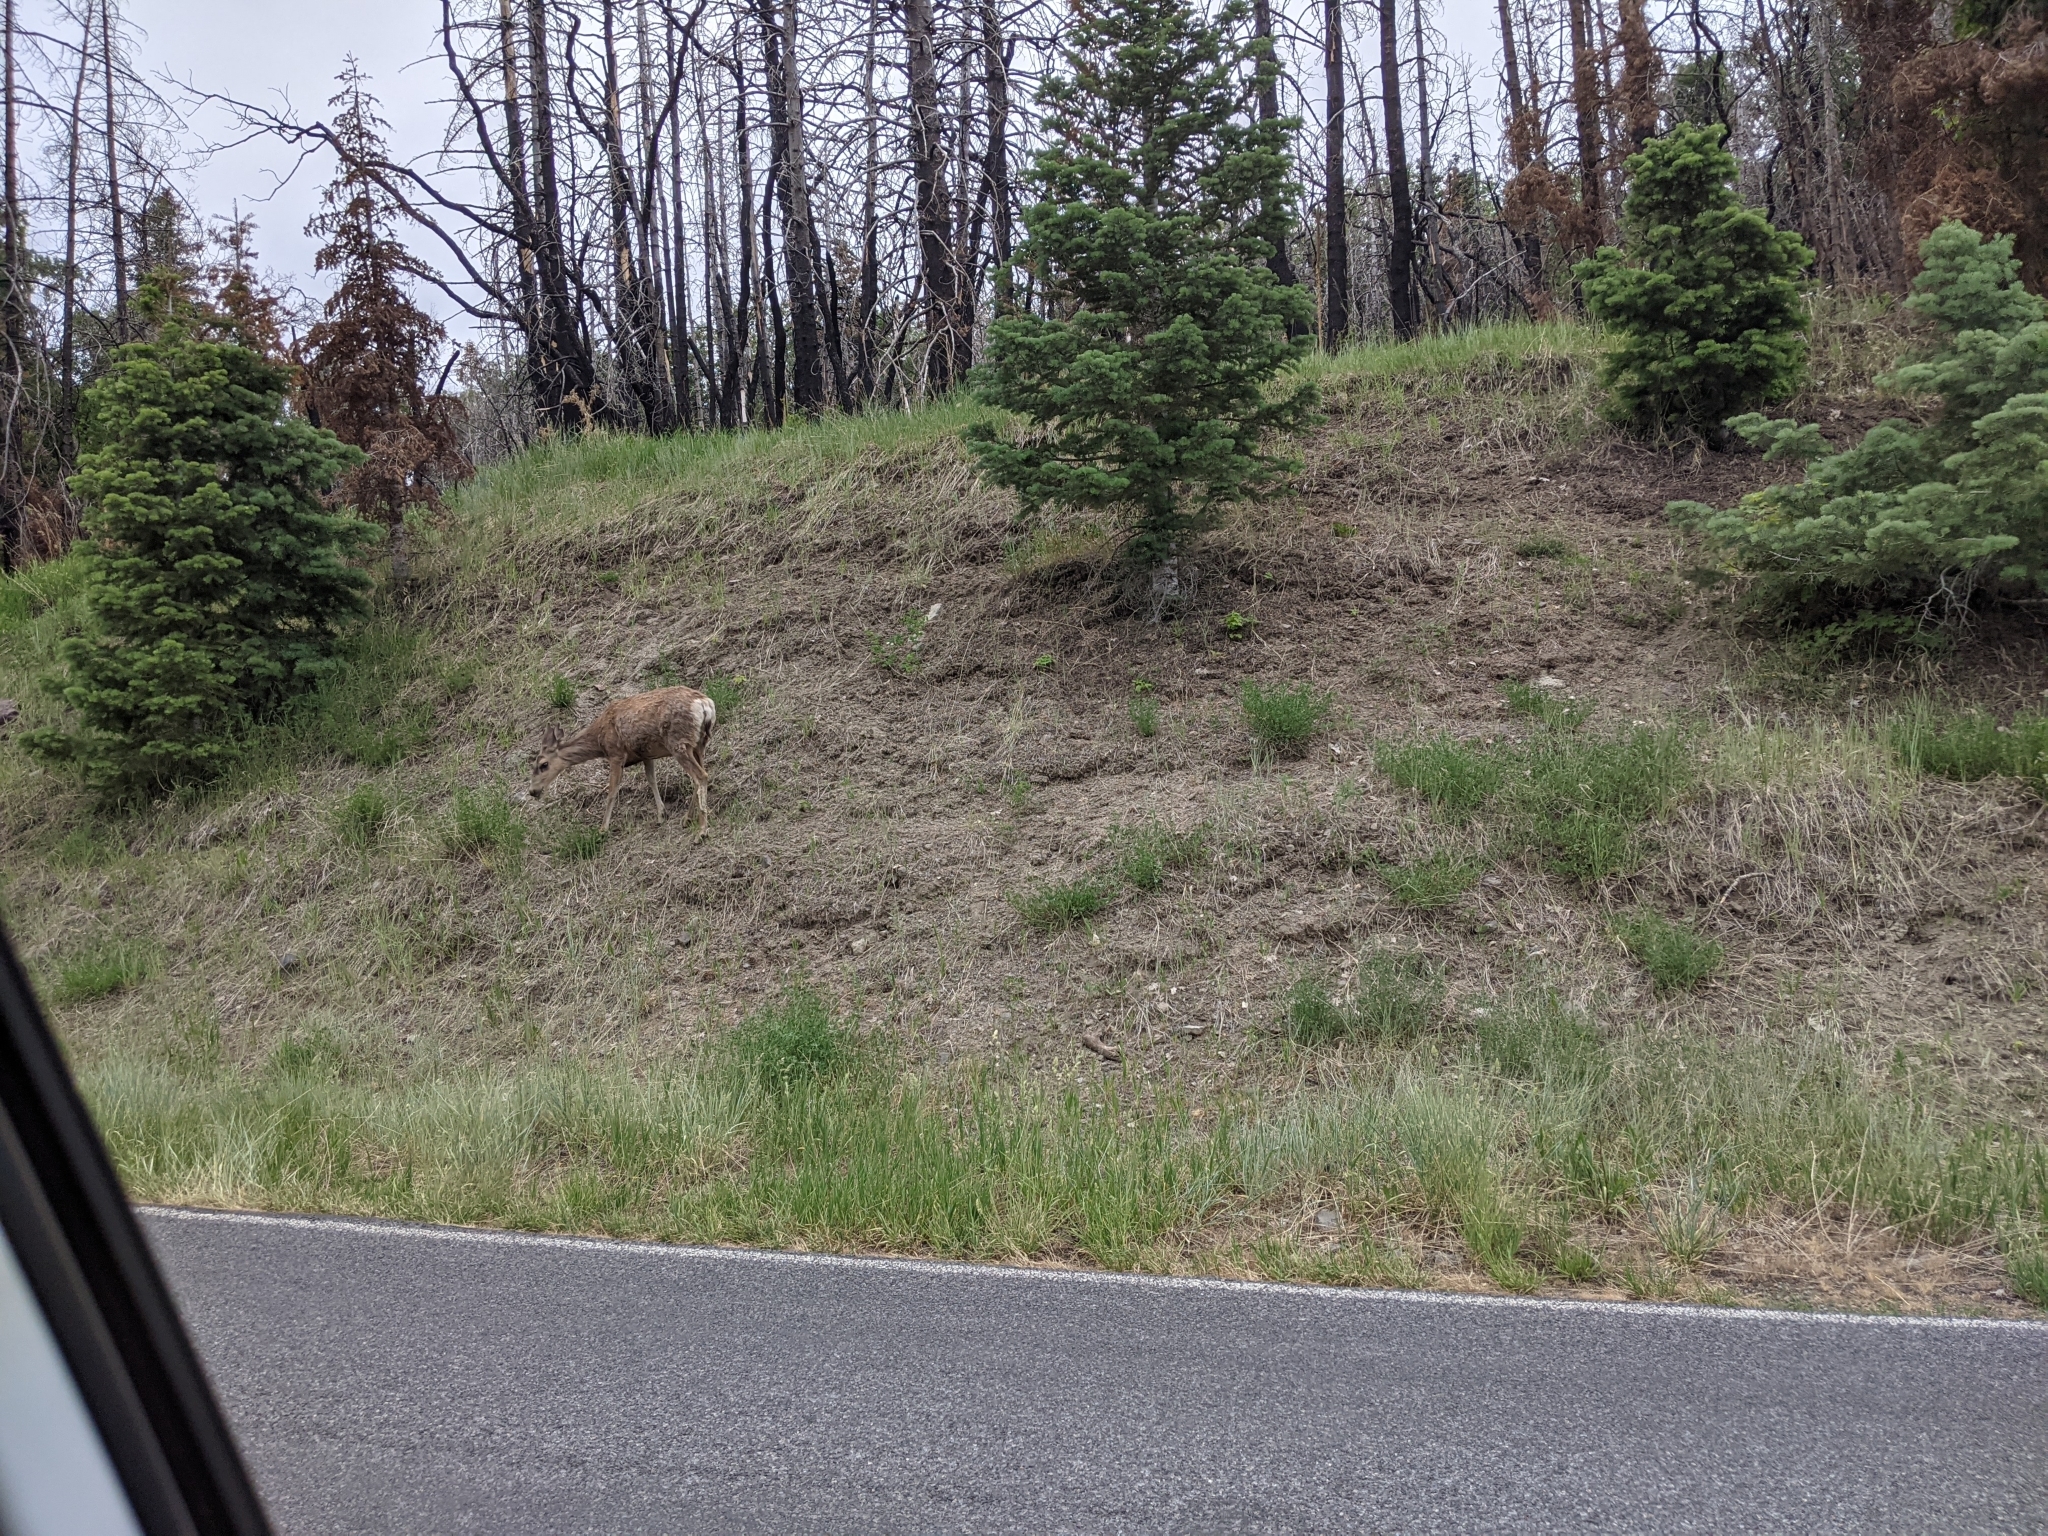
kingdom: Animalia
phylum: Chordata
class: Mammalia
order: Artiodactyla
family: Cervidae
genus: Odocoileus
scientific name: Odocoileus hemionus
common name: Mule deer
